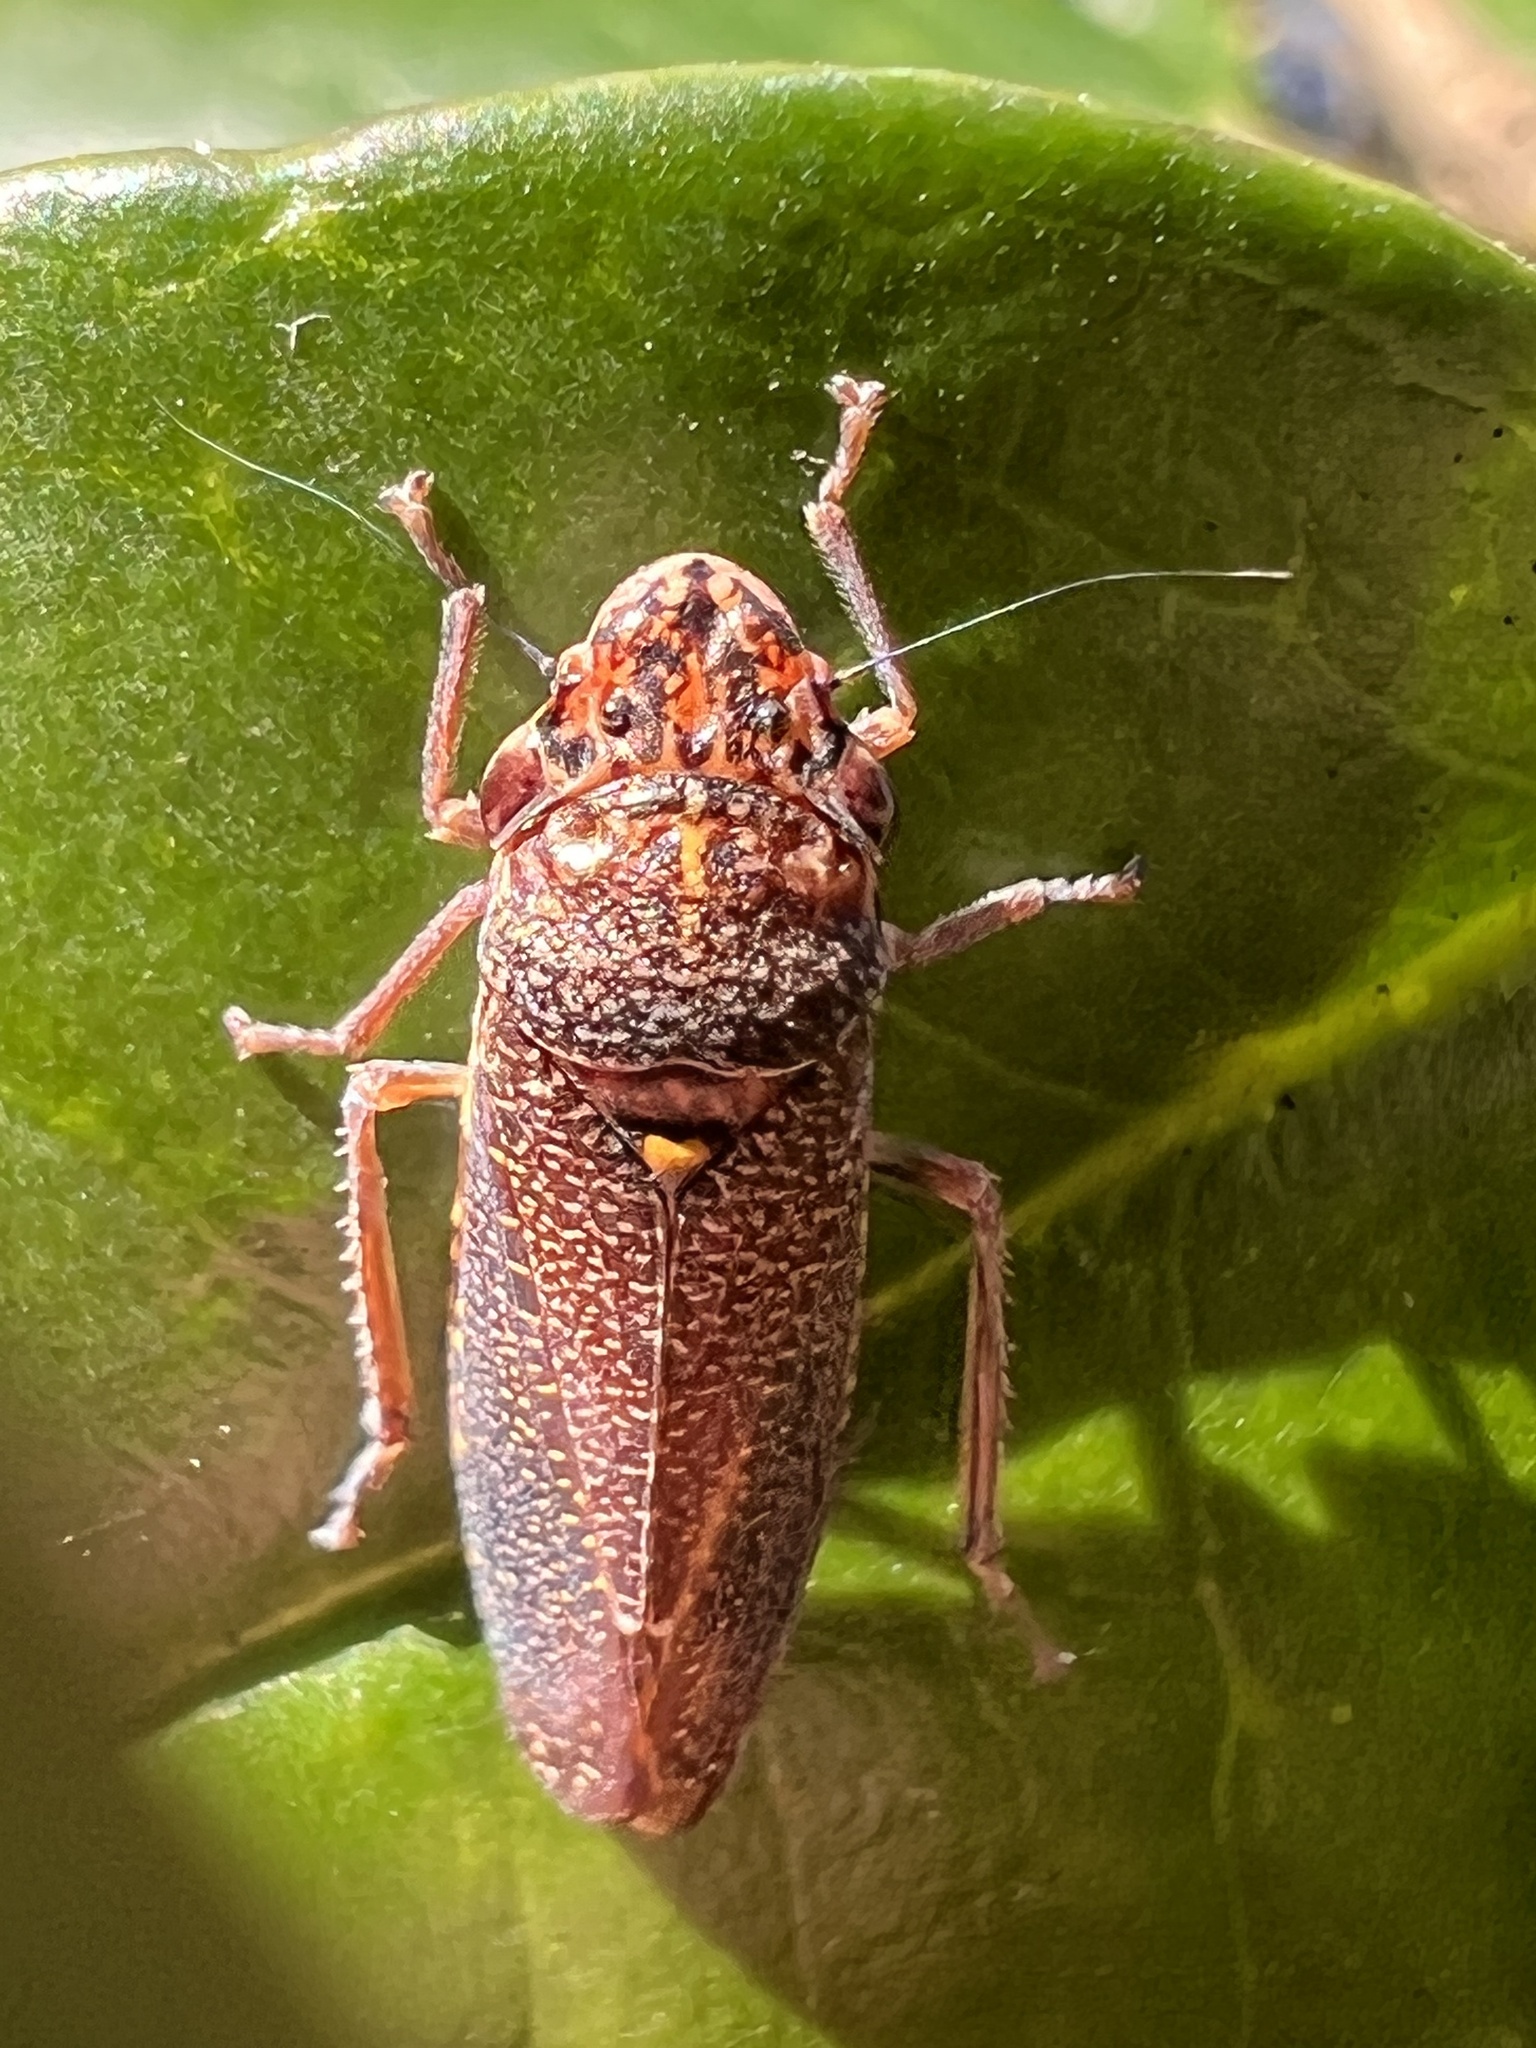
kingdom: Animalia
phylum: Arthropoda
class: Insecta
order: Hemiptera
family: Cicadellidae
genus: Paraulacizes
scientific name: Paraulacizes irrorata
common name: Speckled sharpshooter
